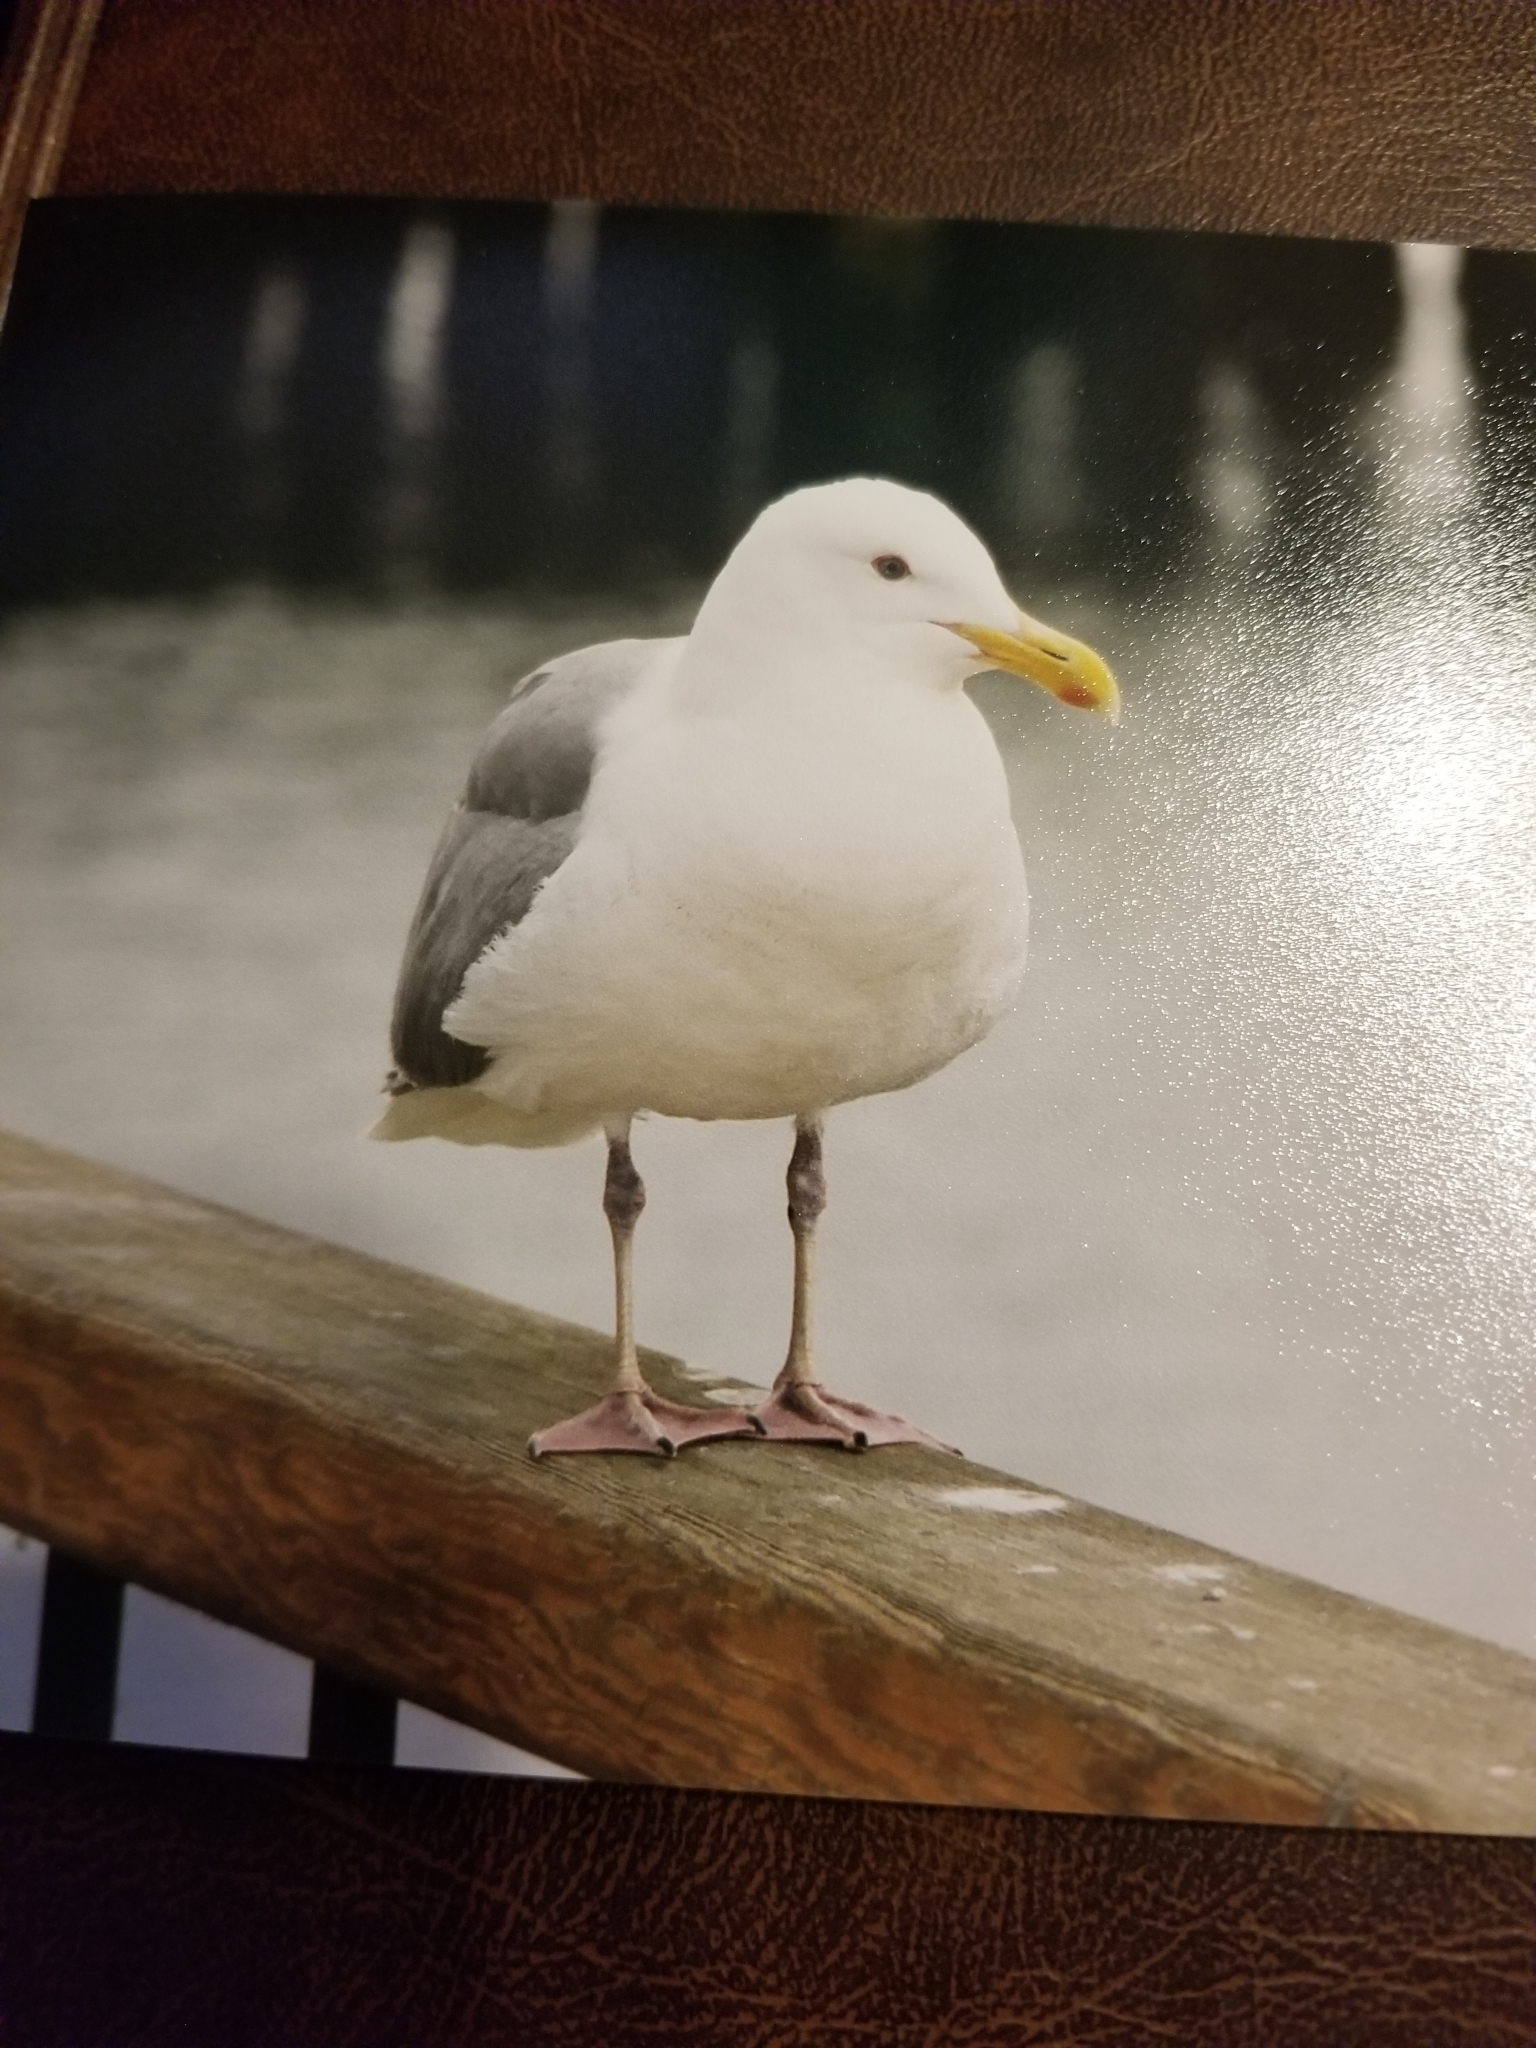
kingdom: Animalia
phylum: Chordata
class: Aves
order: Charadriiformes
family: Laridae
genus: Larus
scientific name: Larus
